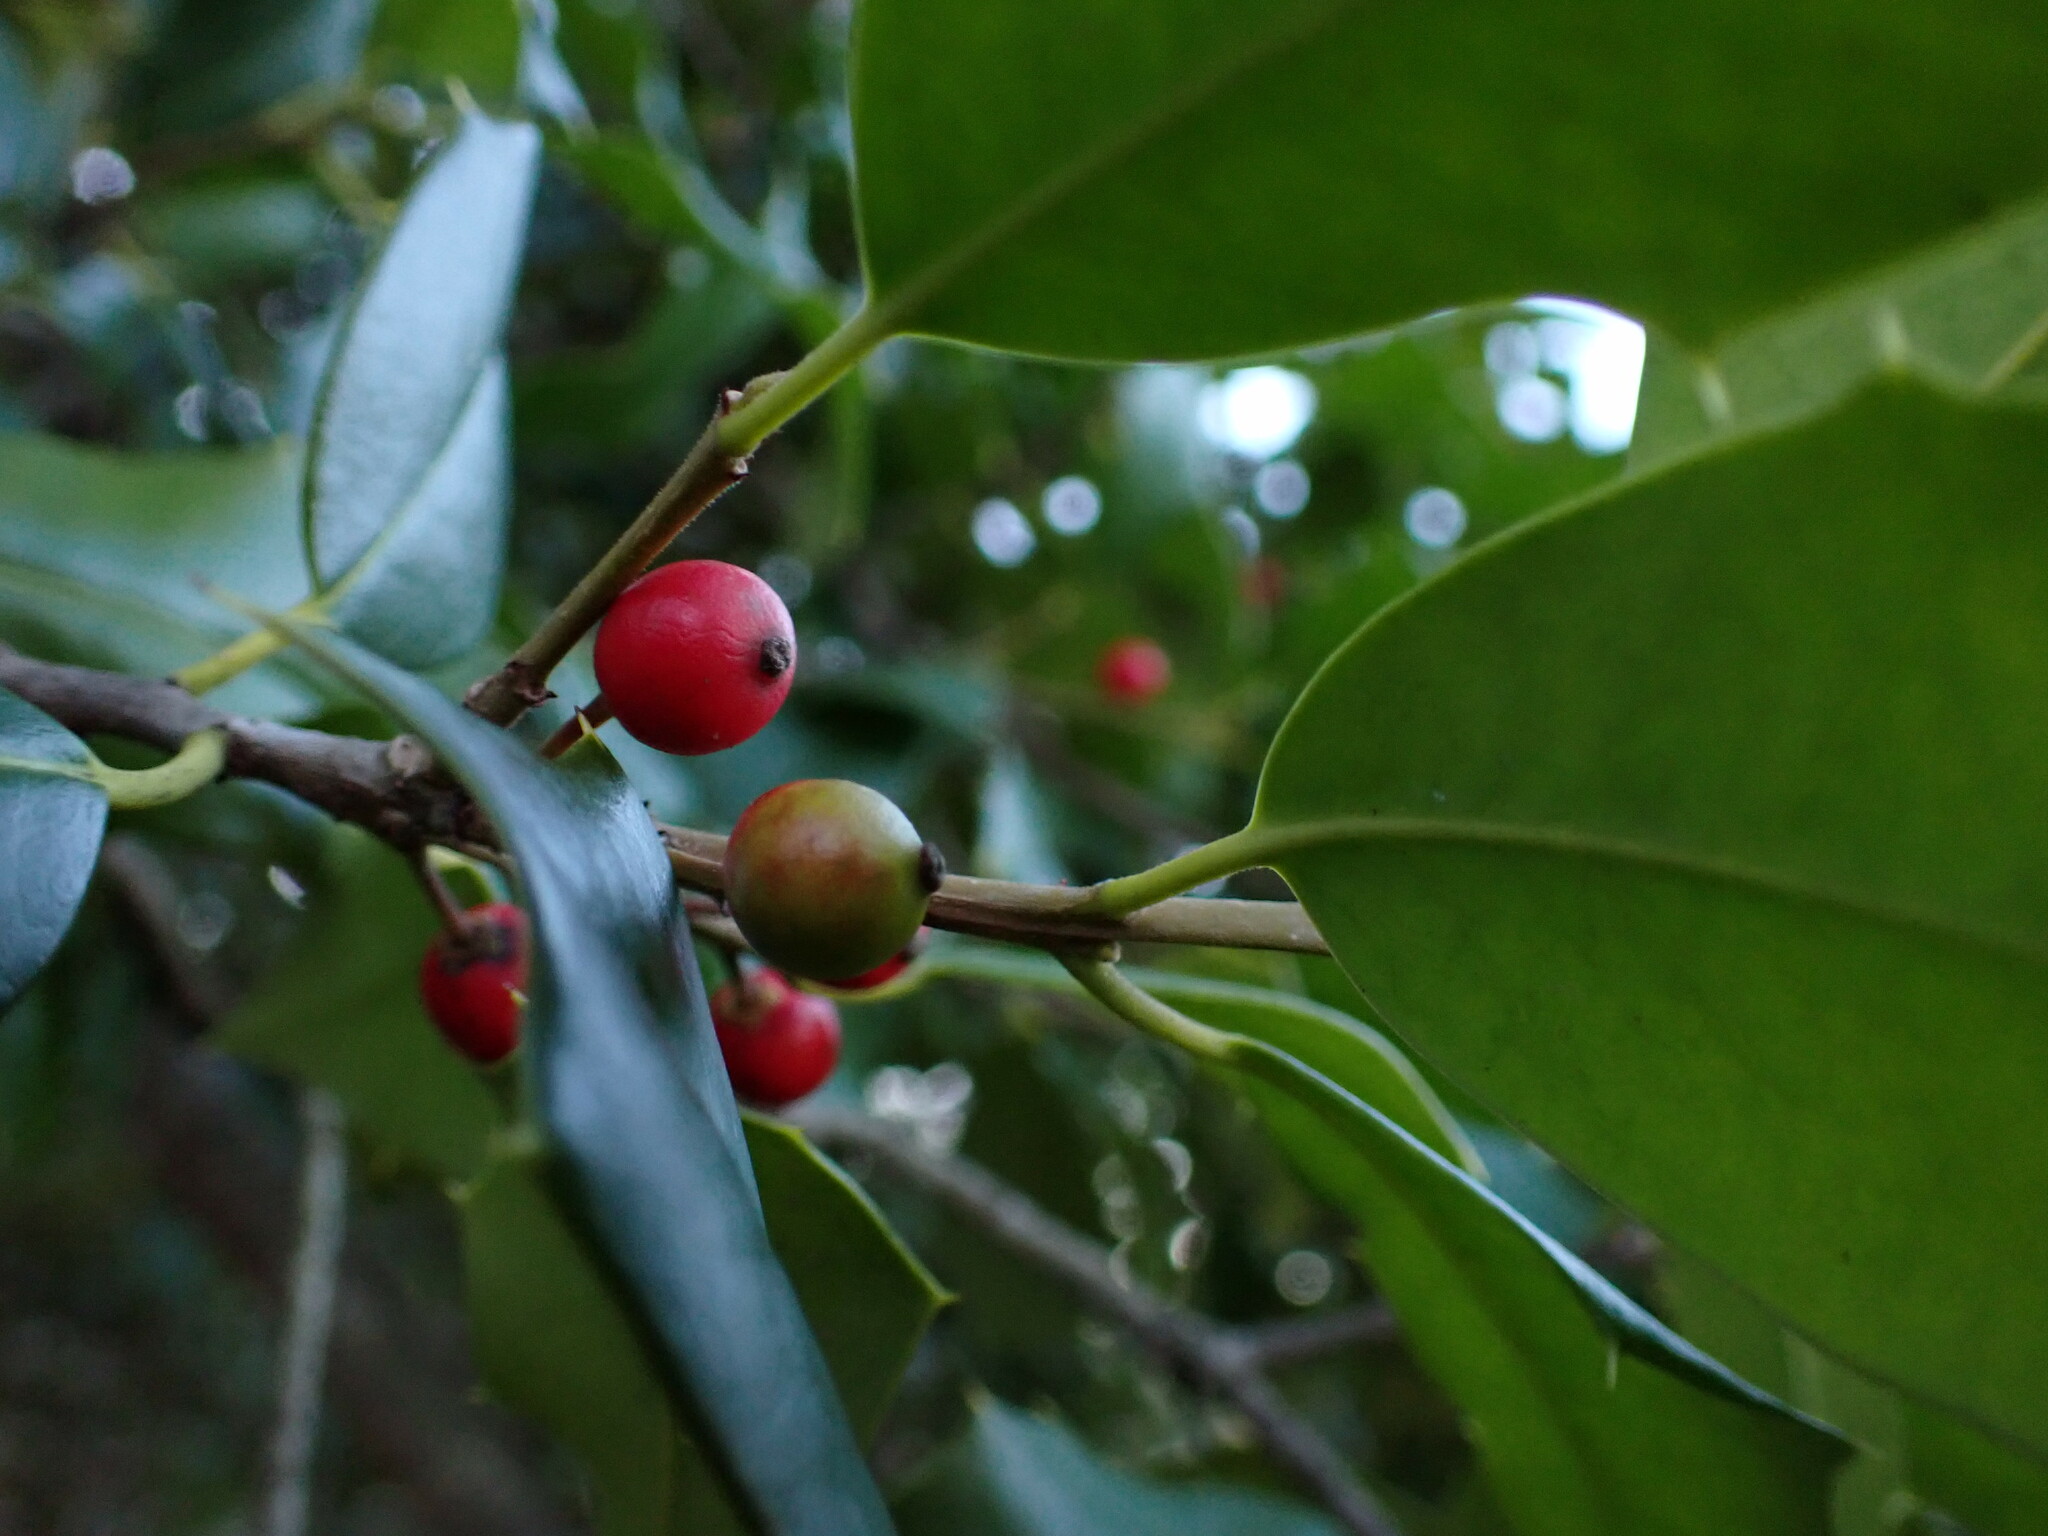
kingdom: Animalia
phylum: Arthropoda
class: Insecta
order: Diptera
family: Cecidomyiidae
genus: Asphondylia
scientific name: Asphondylia ilicicola
